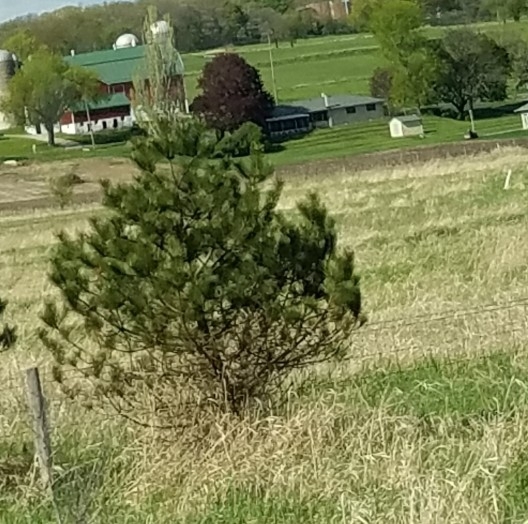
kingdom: Plantae
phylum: Tracheophyta
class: Pinopsida
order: Pinales
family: Pinaceae
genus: Pinus
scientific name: Pinus resinosa
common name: Norway pine
